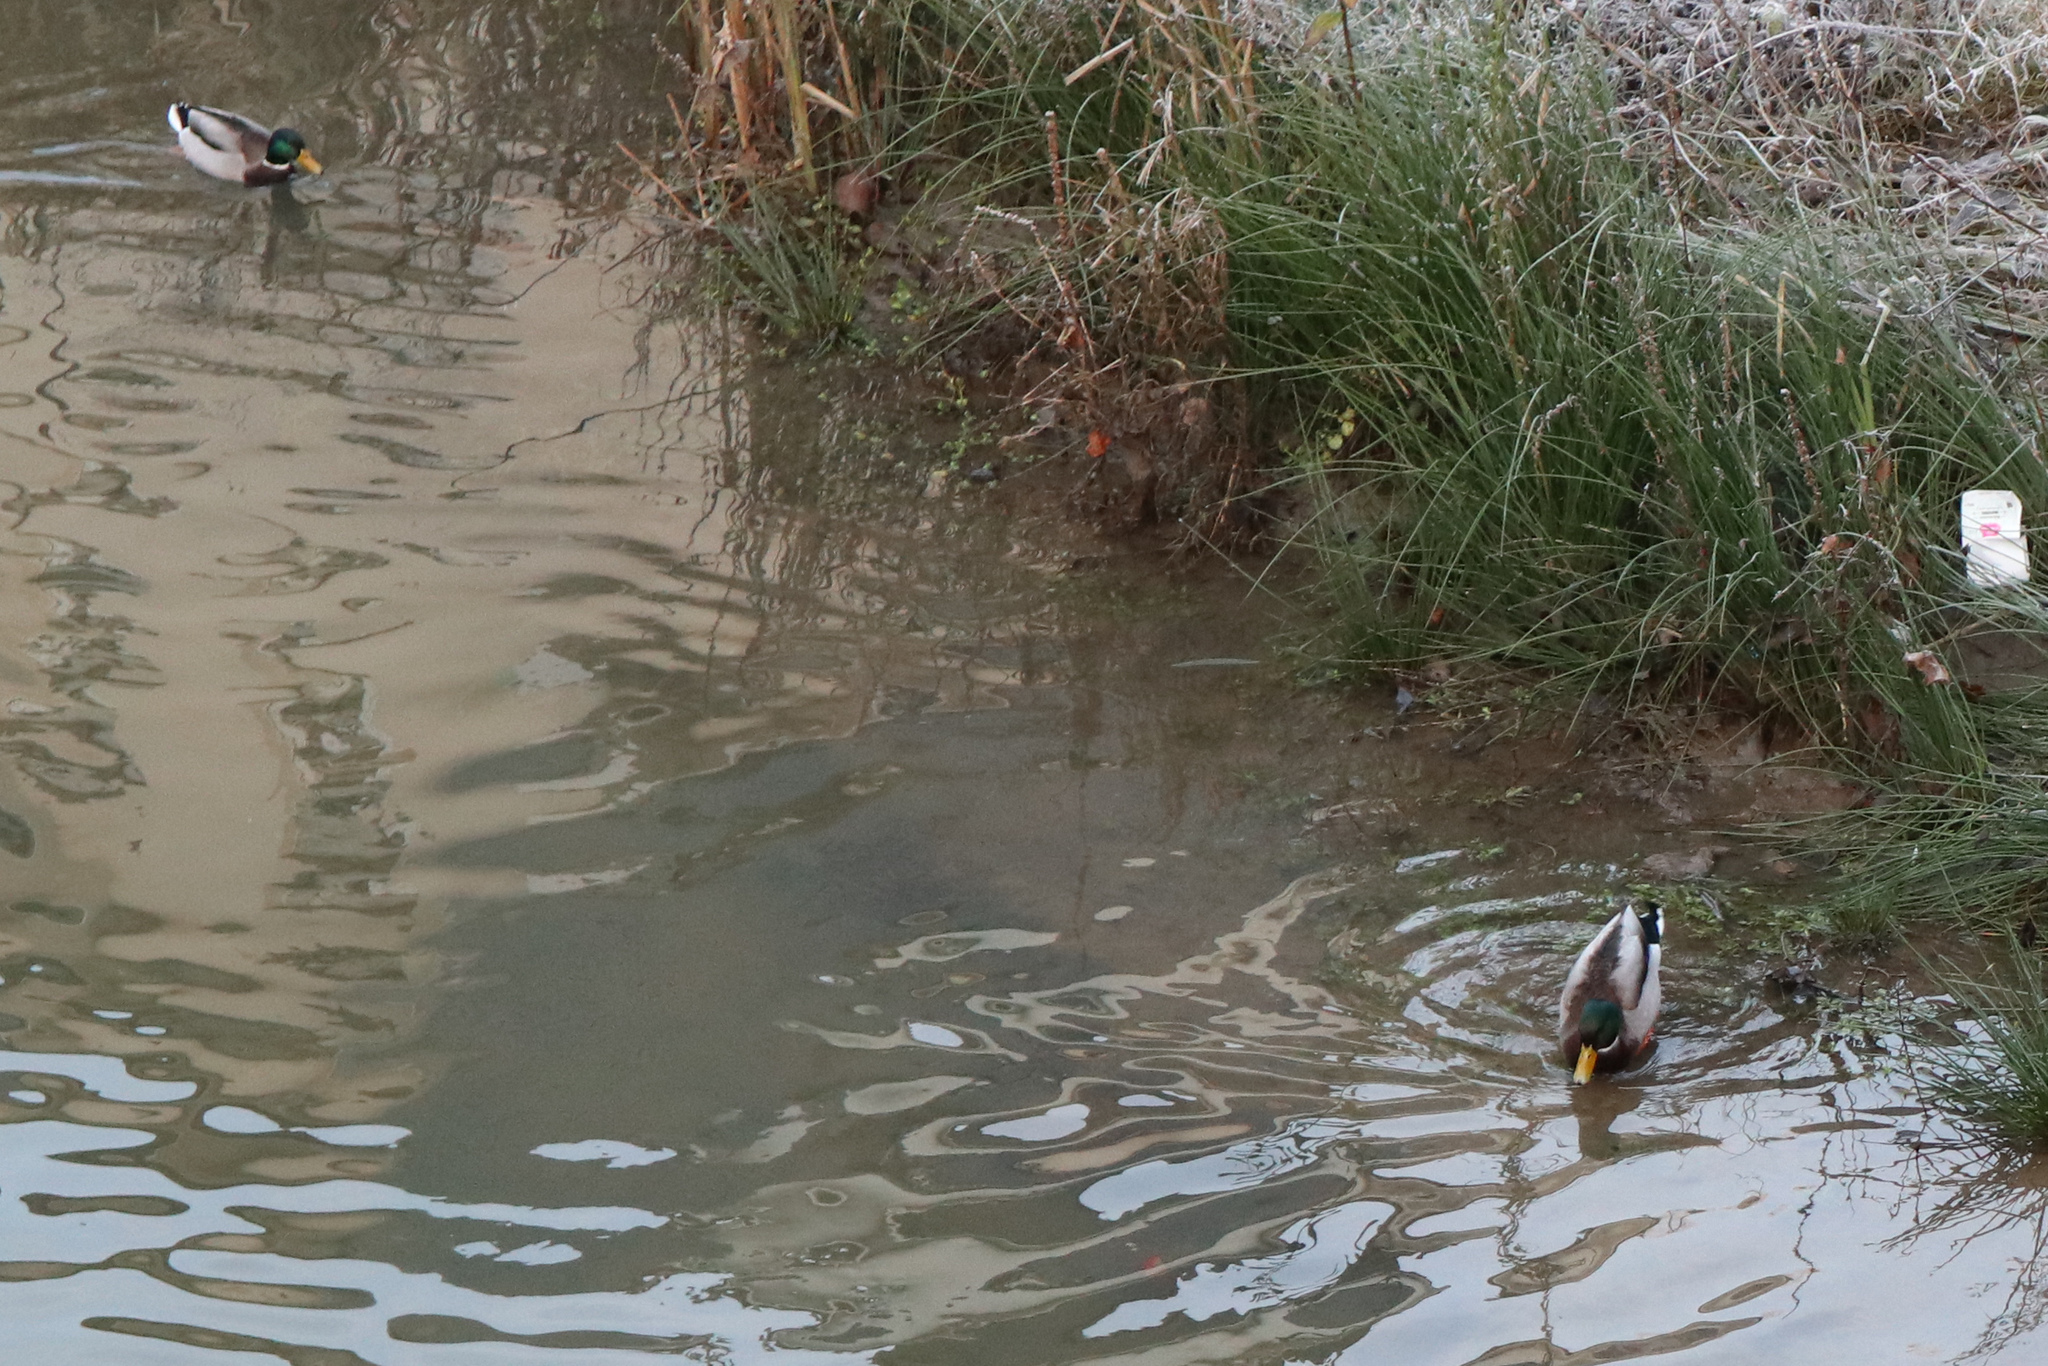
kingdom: Animalia
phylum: Chordata
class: Aves
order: Anseriformes
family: Anatidae
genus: Anas
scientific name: Anas platyrhynchos
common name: Mallard
